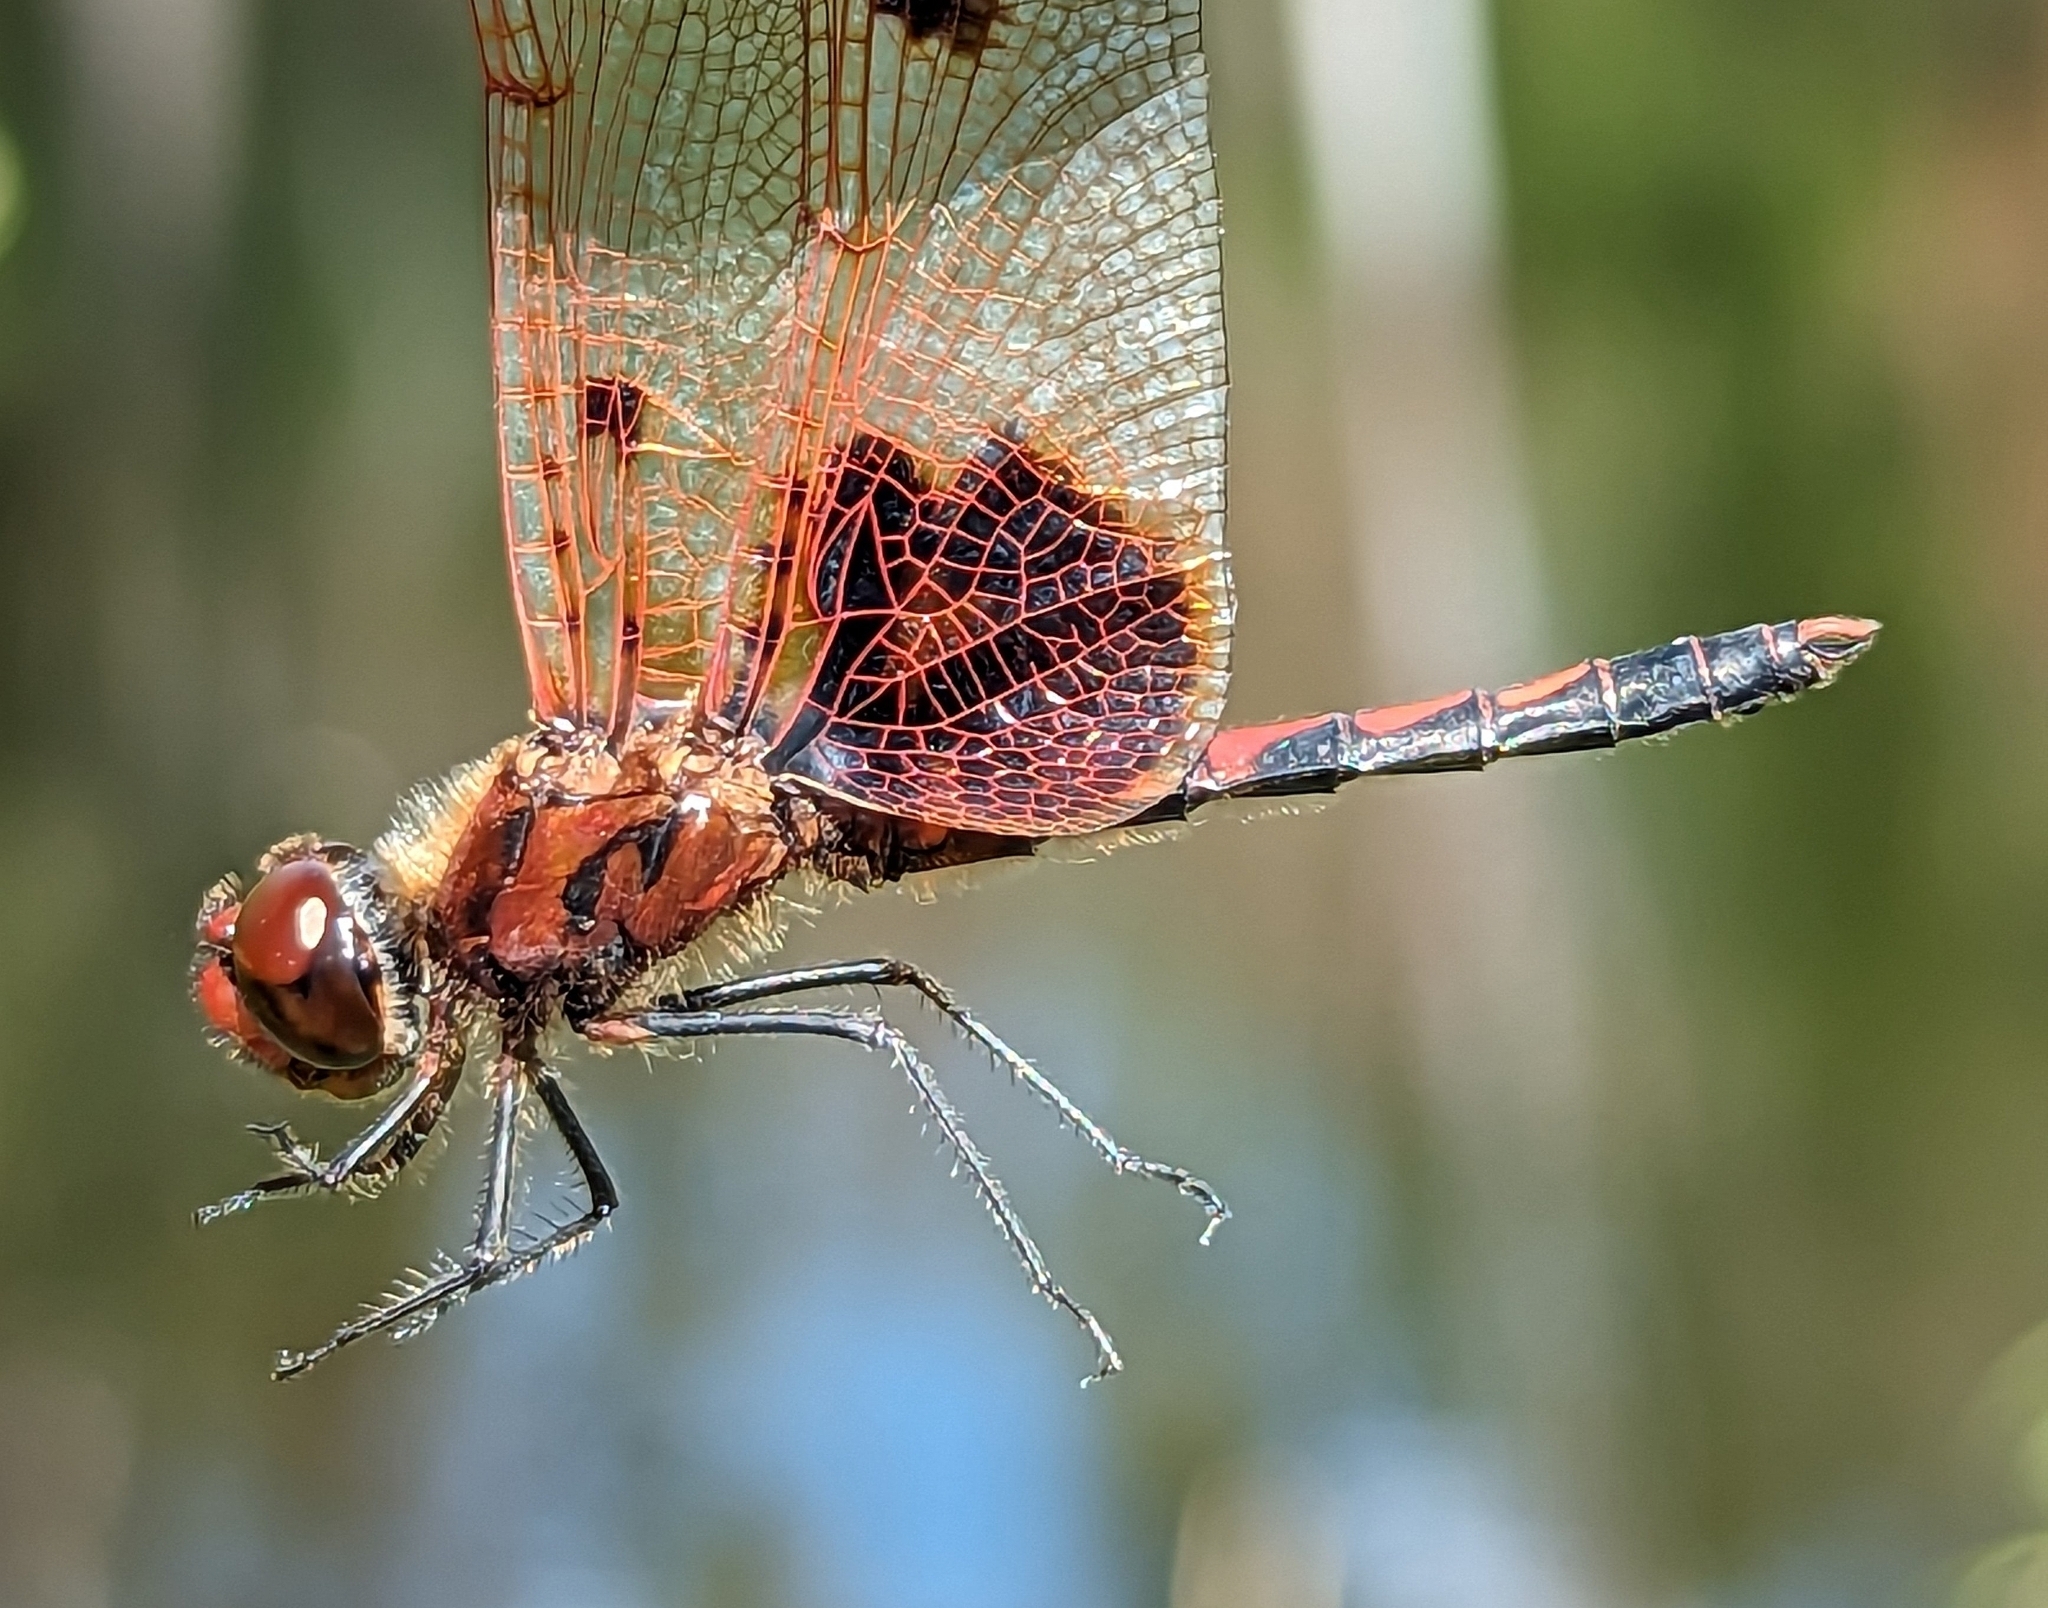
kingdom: Animalia
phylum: Arthropoda
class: Insecta
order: Odonata
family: Libellulidae
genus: Celithemis
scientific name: Celithemis elisa
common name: Calico pennant
